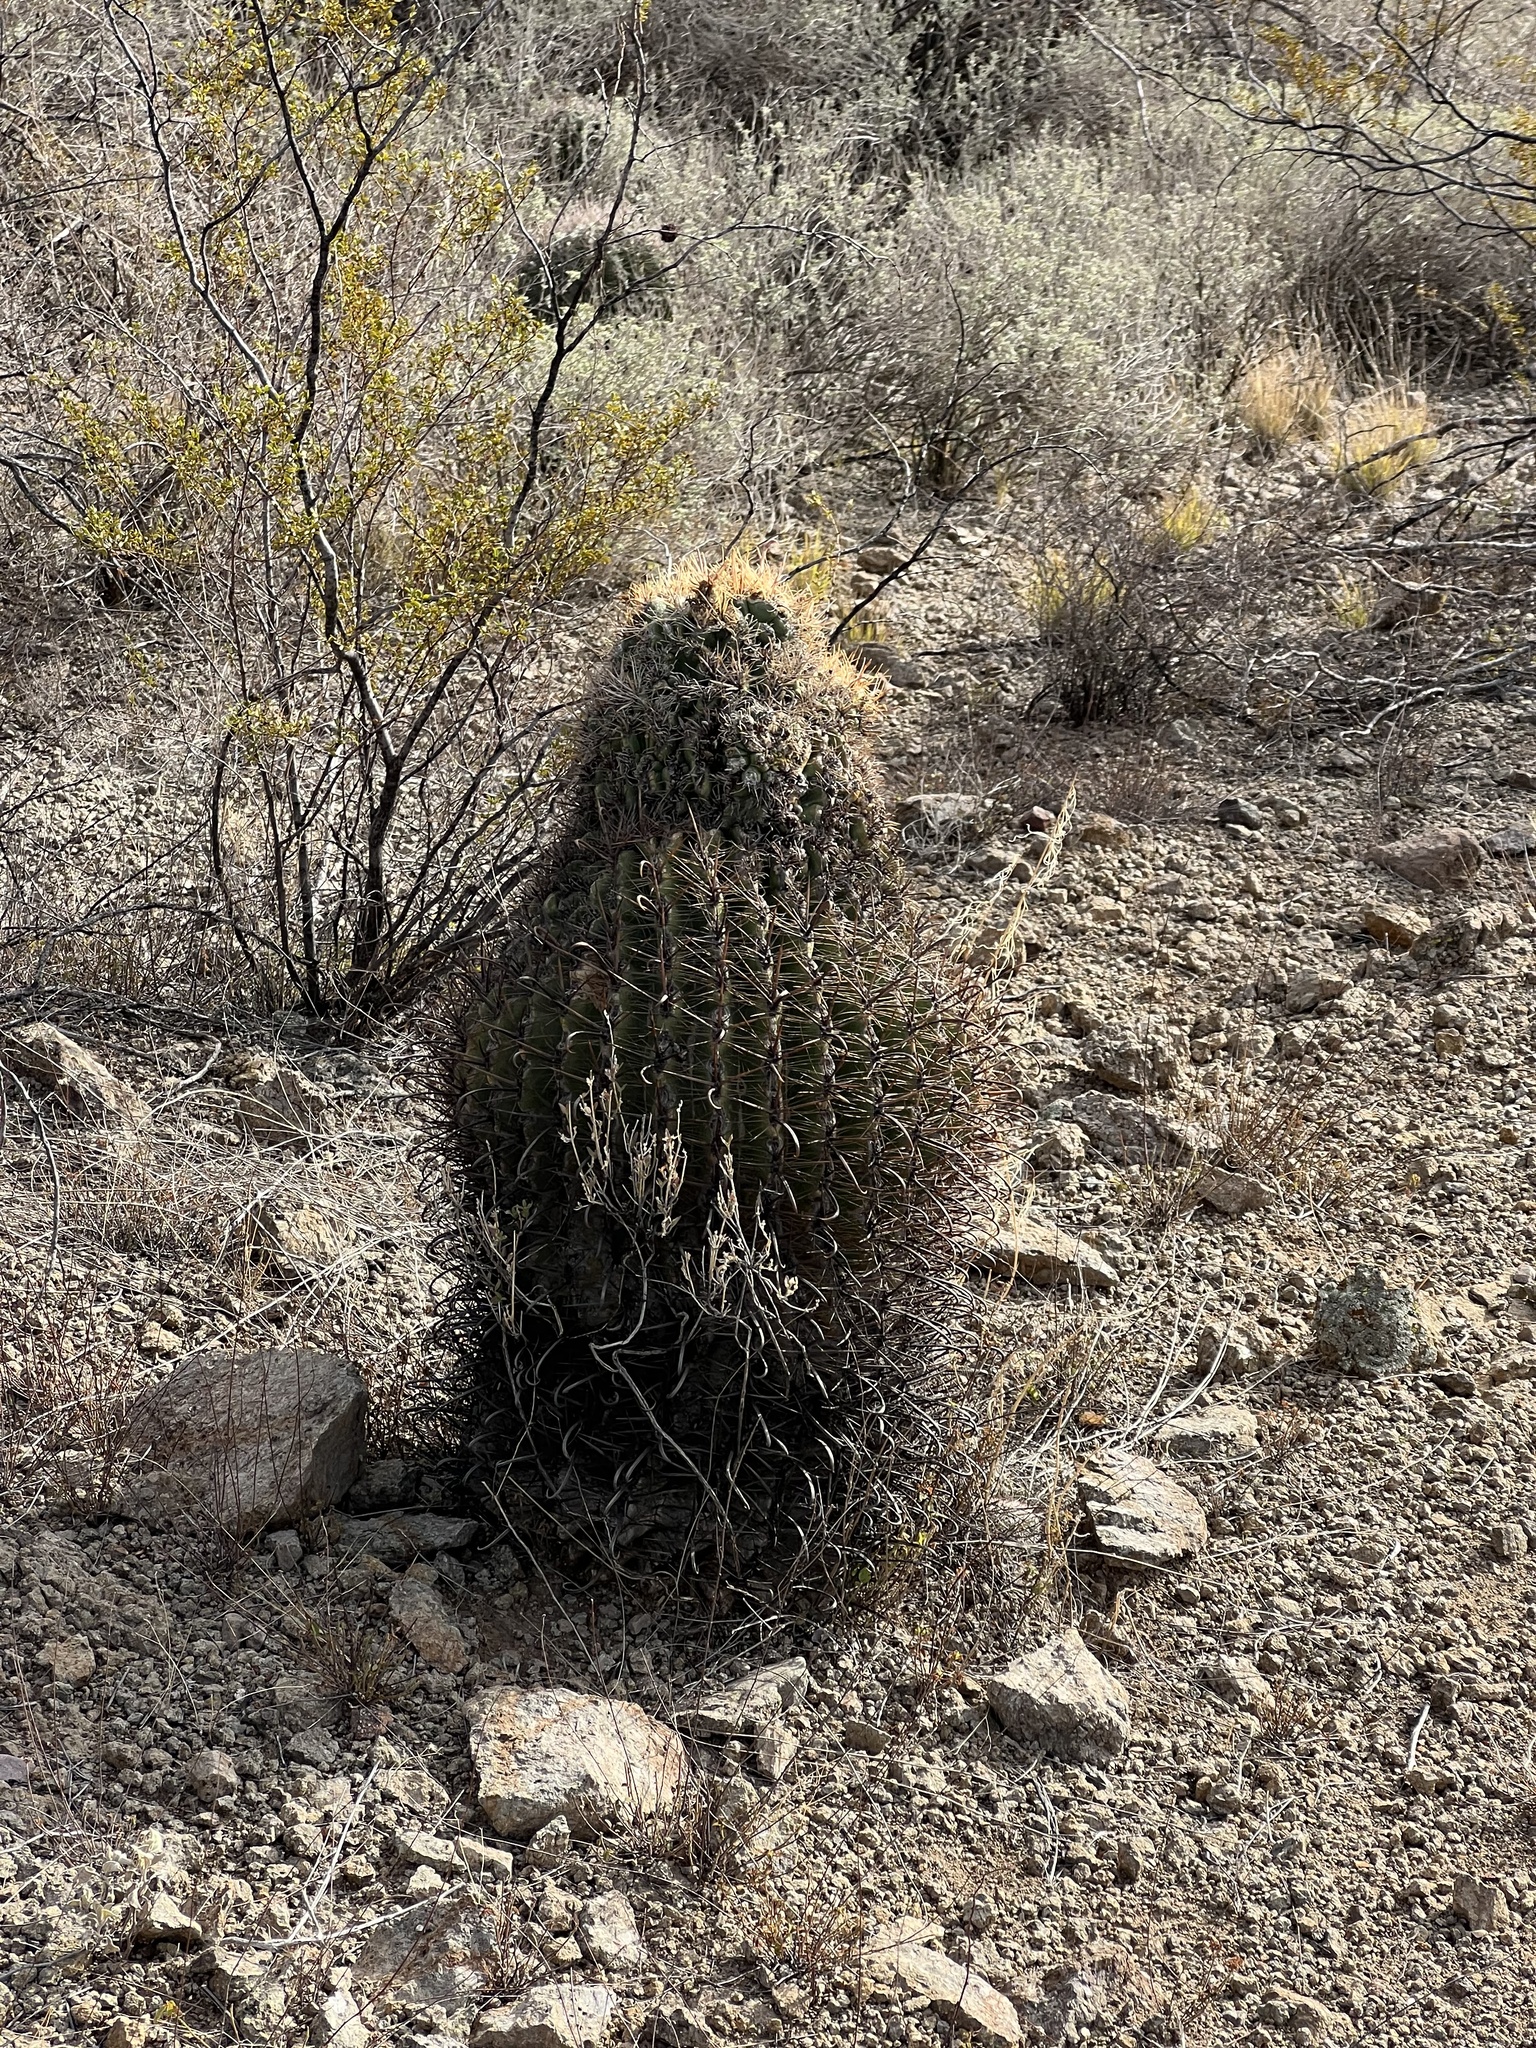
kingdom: Plantae
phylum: Tracheophyta
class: Magnoliopsida
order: Caryophyllales
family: Cactaceae
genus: Ferocactus
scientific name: Ferocactus wislizeni
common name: Candy barrel cactus
